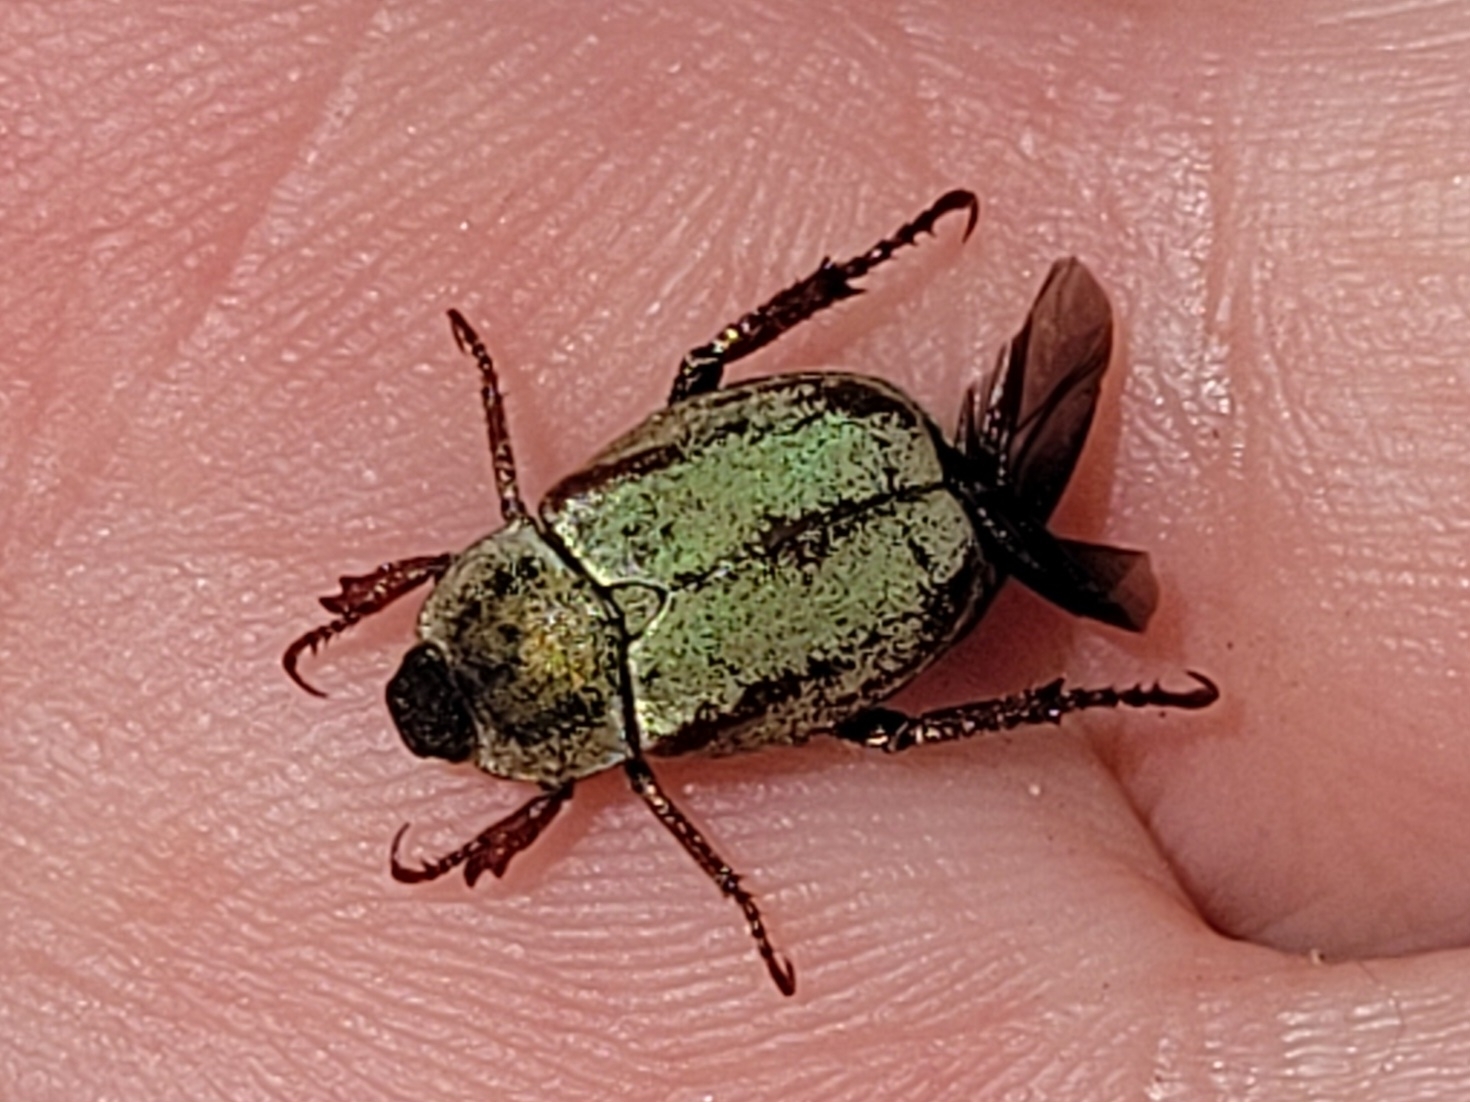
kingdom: Animalia
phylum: Arthropoda
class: Insecta
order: Coleoptera
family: Scarabaeidae
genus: Hoplia
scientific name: Hoplia argentea
